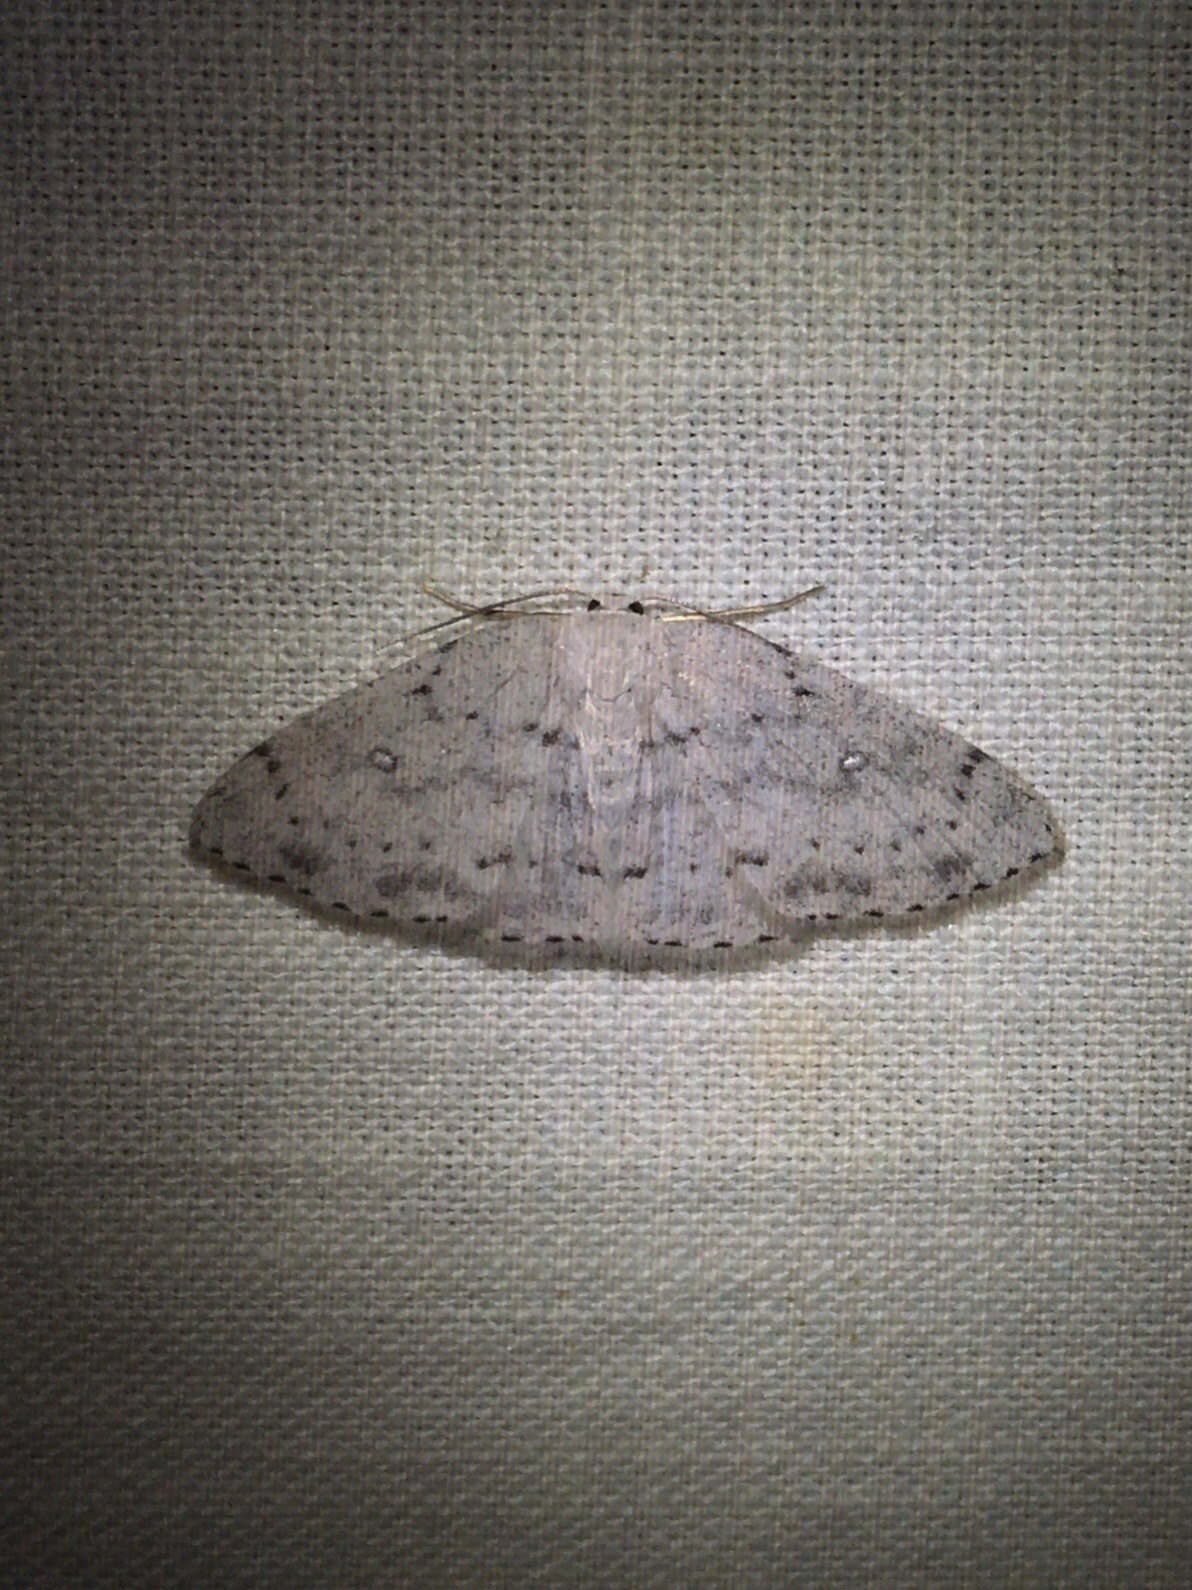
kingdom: Animalia
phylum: Arthropoda
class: Insecta
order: Lepidoptera
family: Geometridae
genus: Cyclophora
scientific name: Cyclophora pendulinaria
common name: Sweet fern geometer
